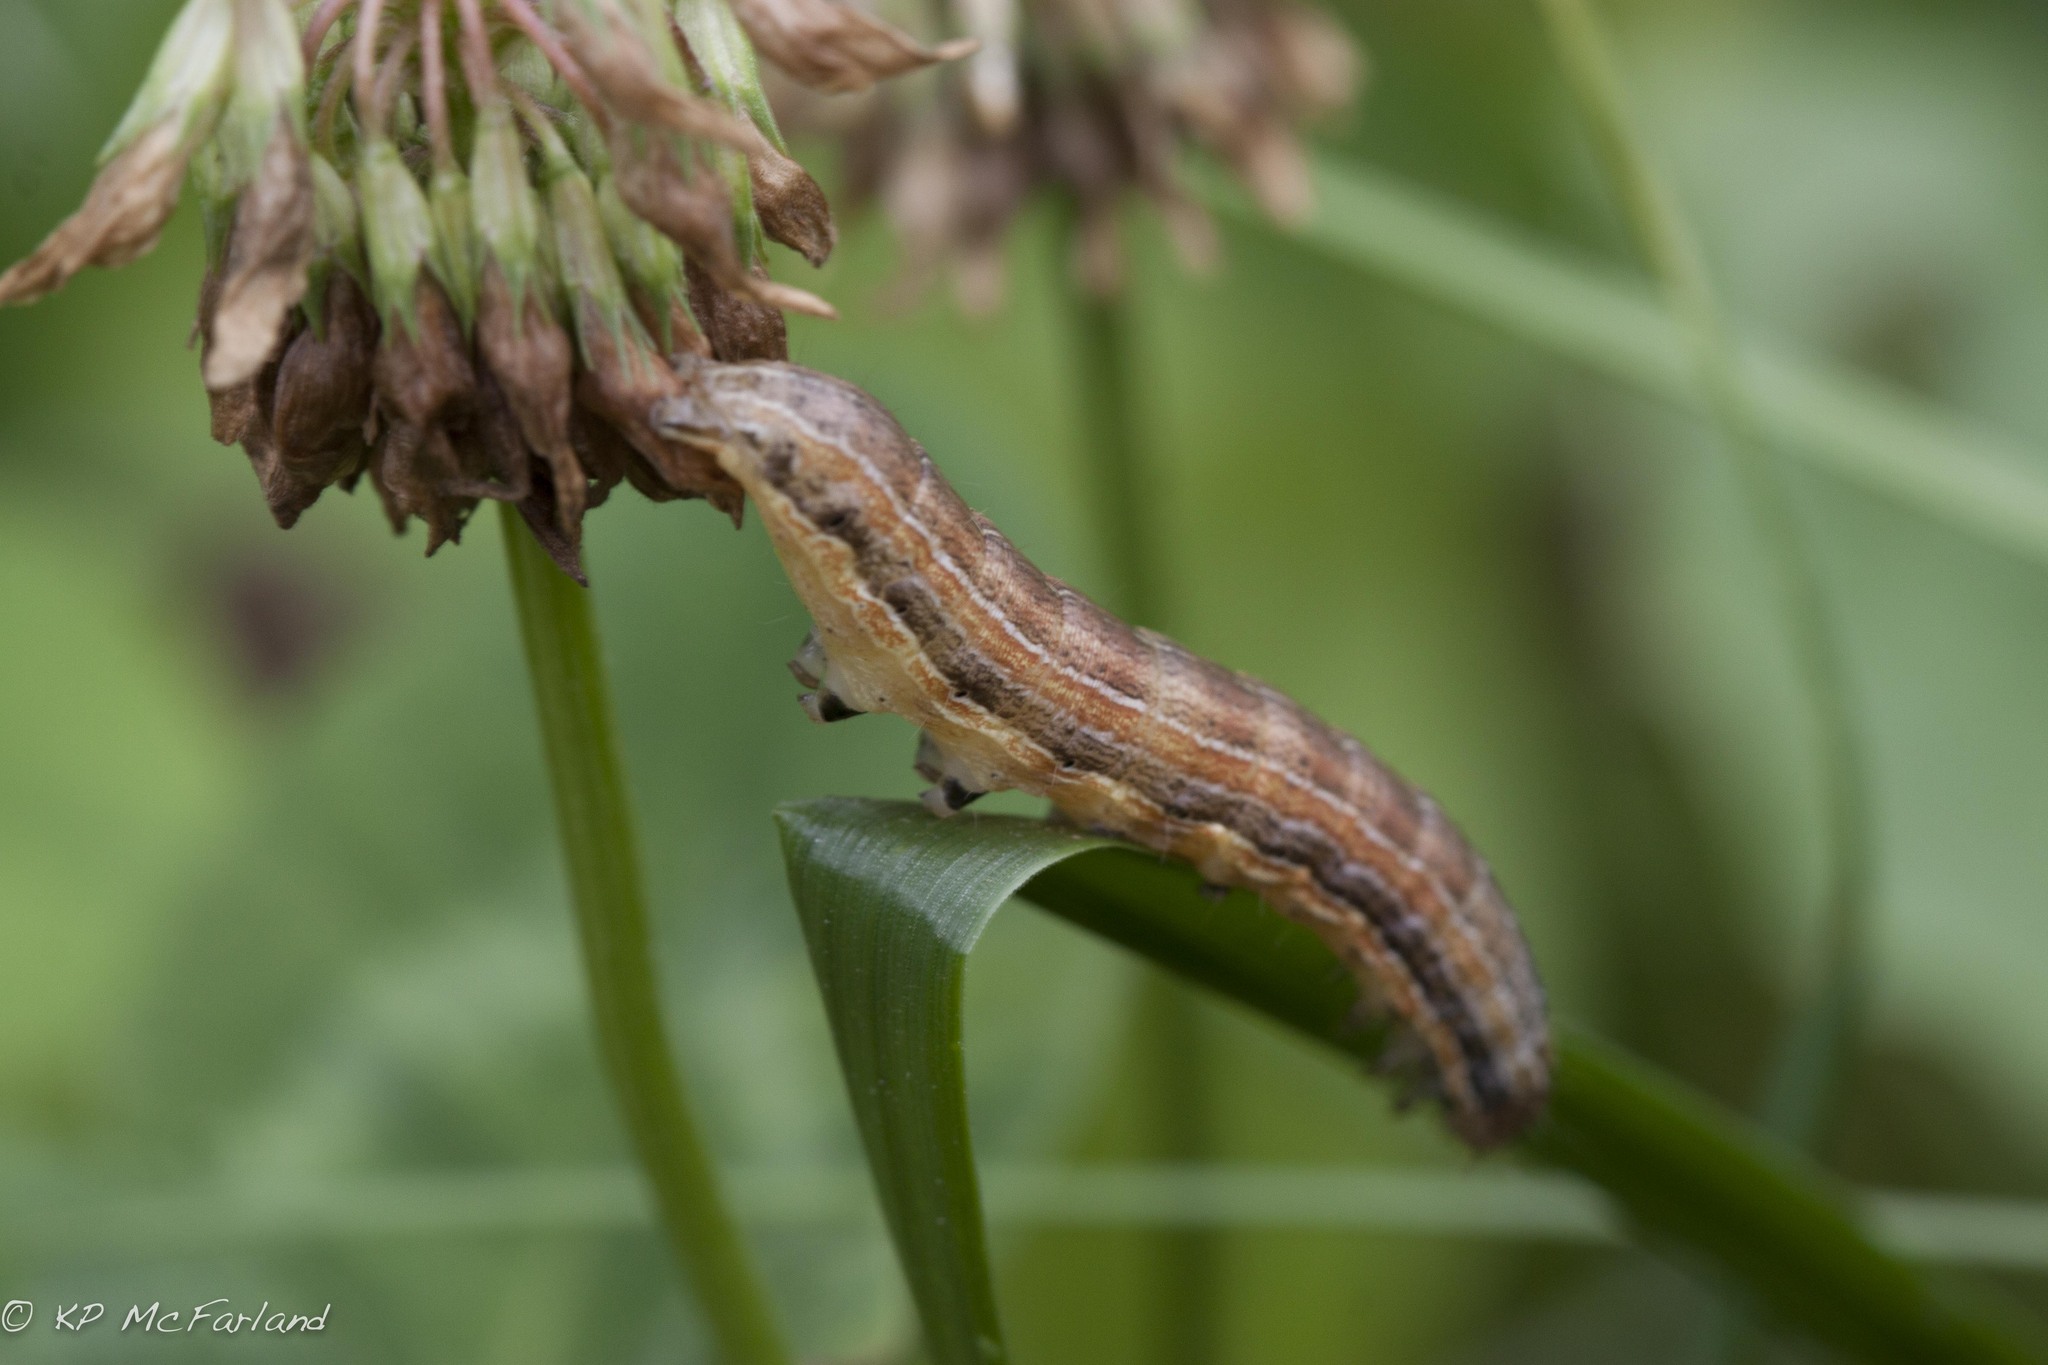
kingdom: Animalia
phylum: Arthropoda
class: Insecta
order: Lepidoptera
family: Noctuidae
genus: Mythimna
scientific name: Mythimna unipuncta
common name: White-speck
